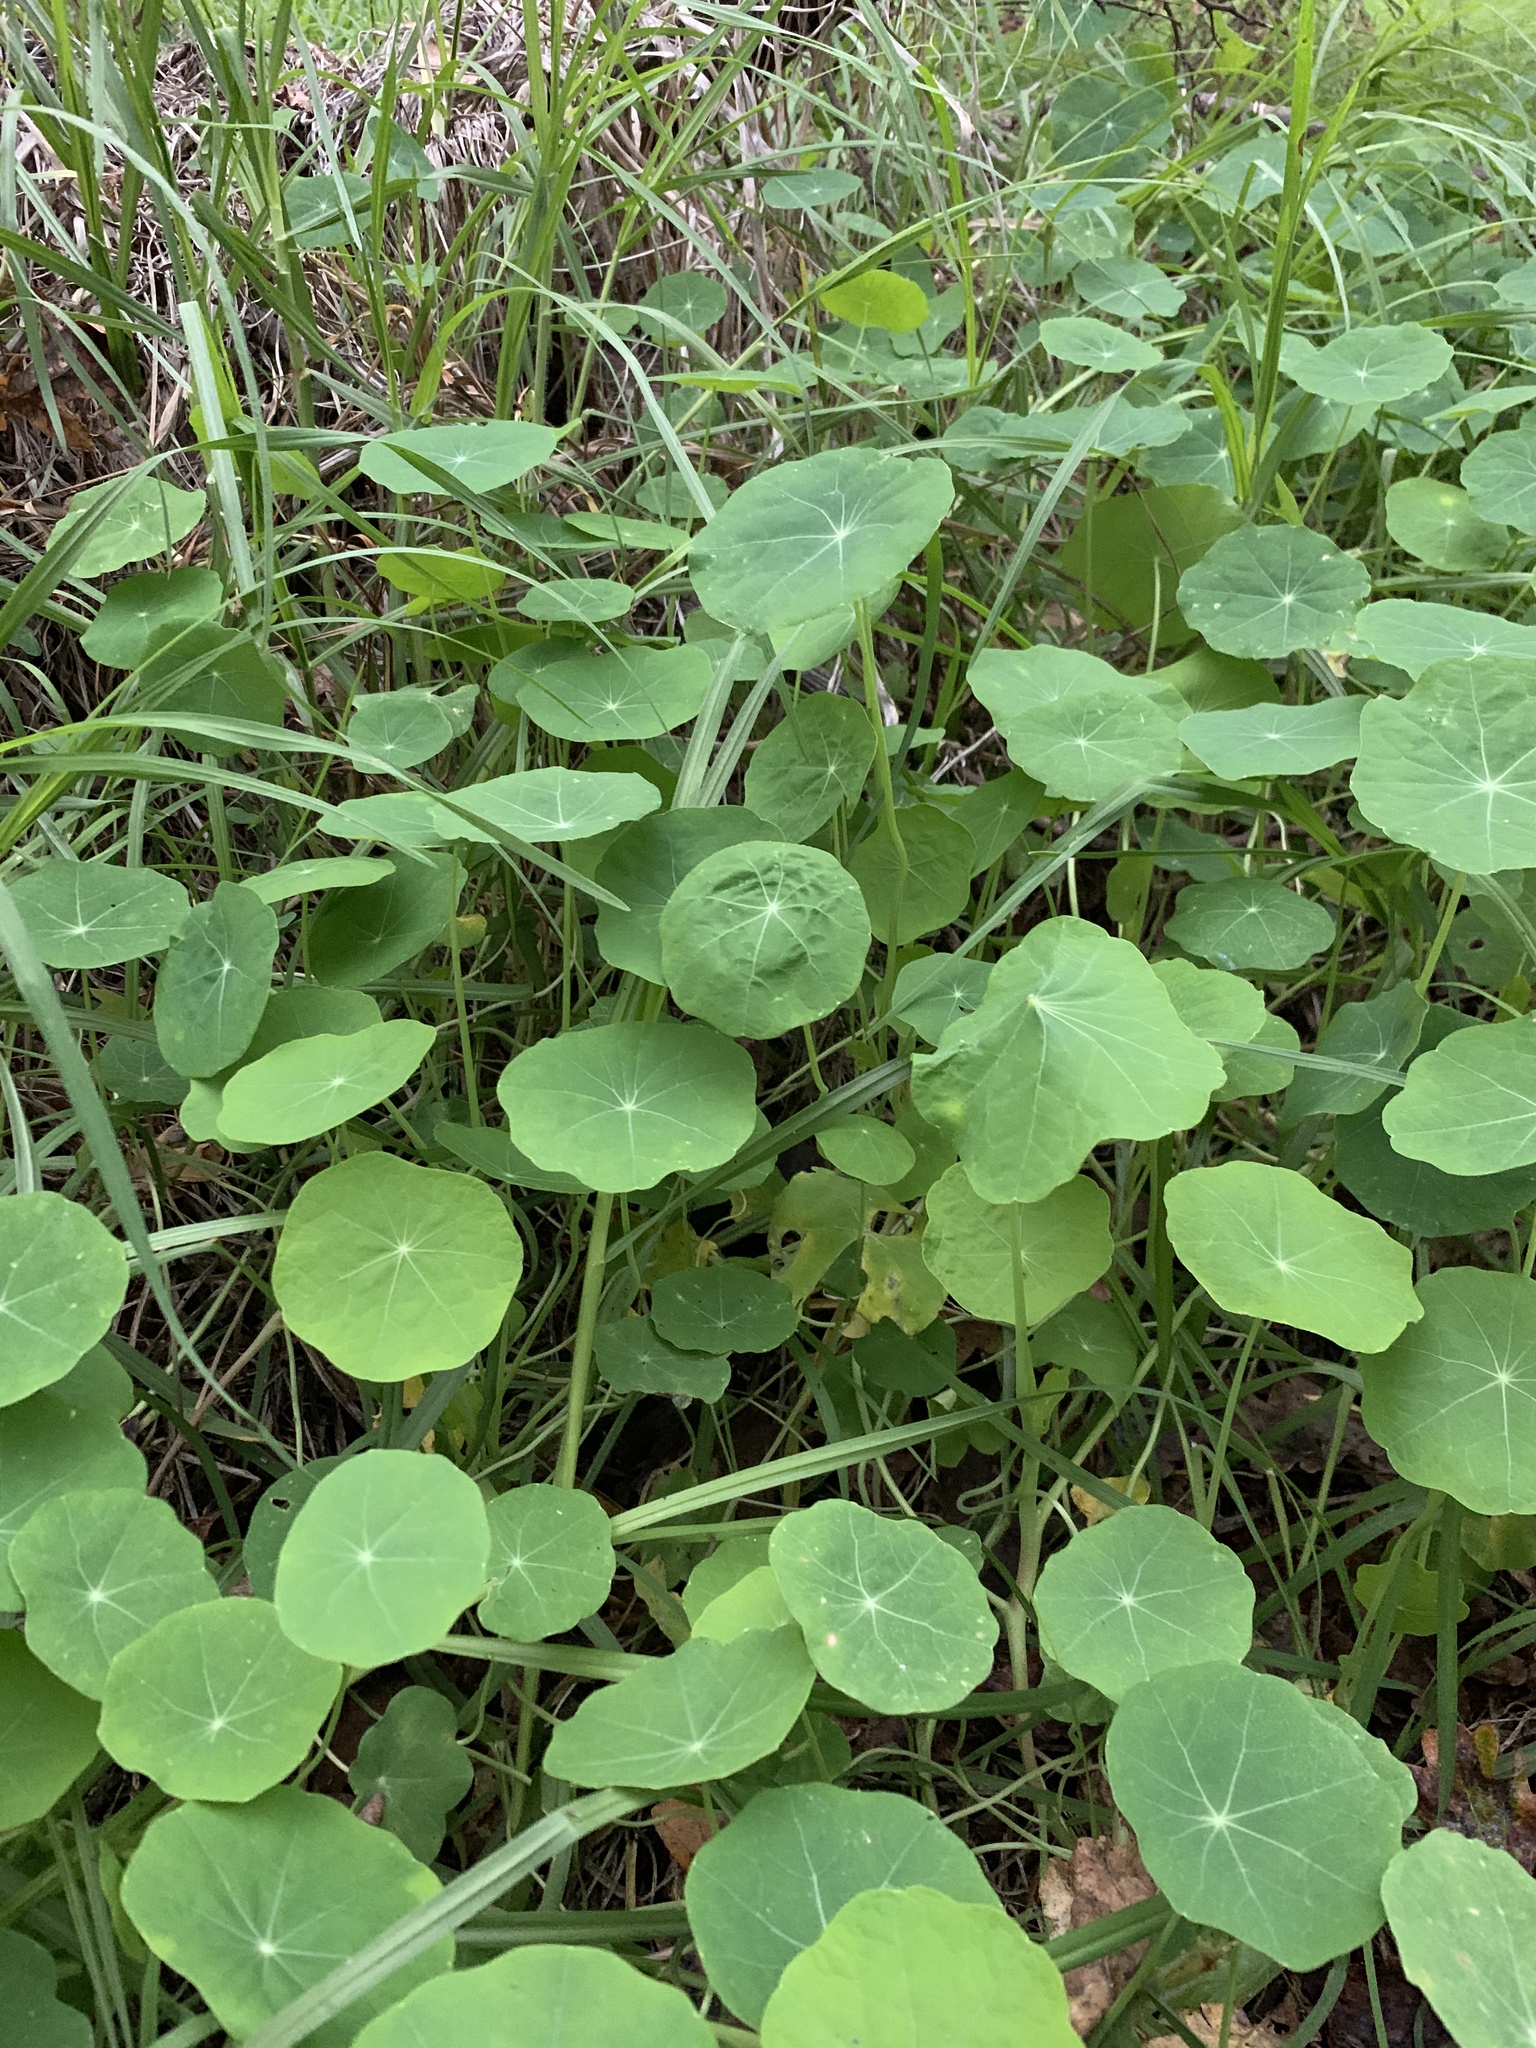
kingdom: Plantae
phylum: Tracheophyta
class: Magnoliopsida
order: Brassicales
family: Tropaeolaceae
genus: Tropaeolum
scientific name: Tropaeolum majus
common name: Nasturtium
